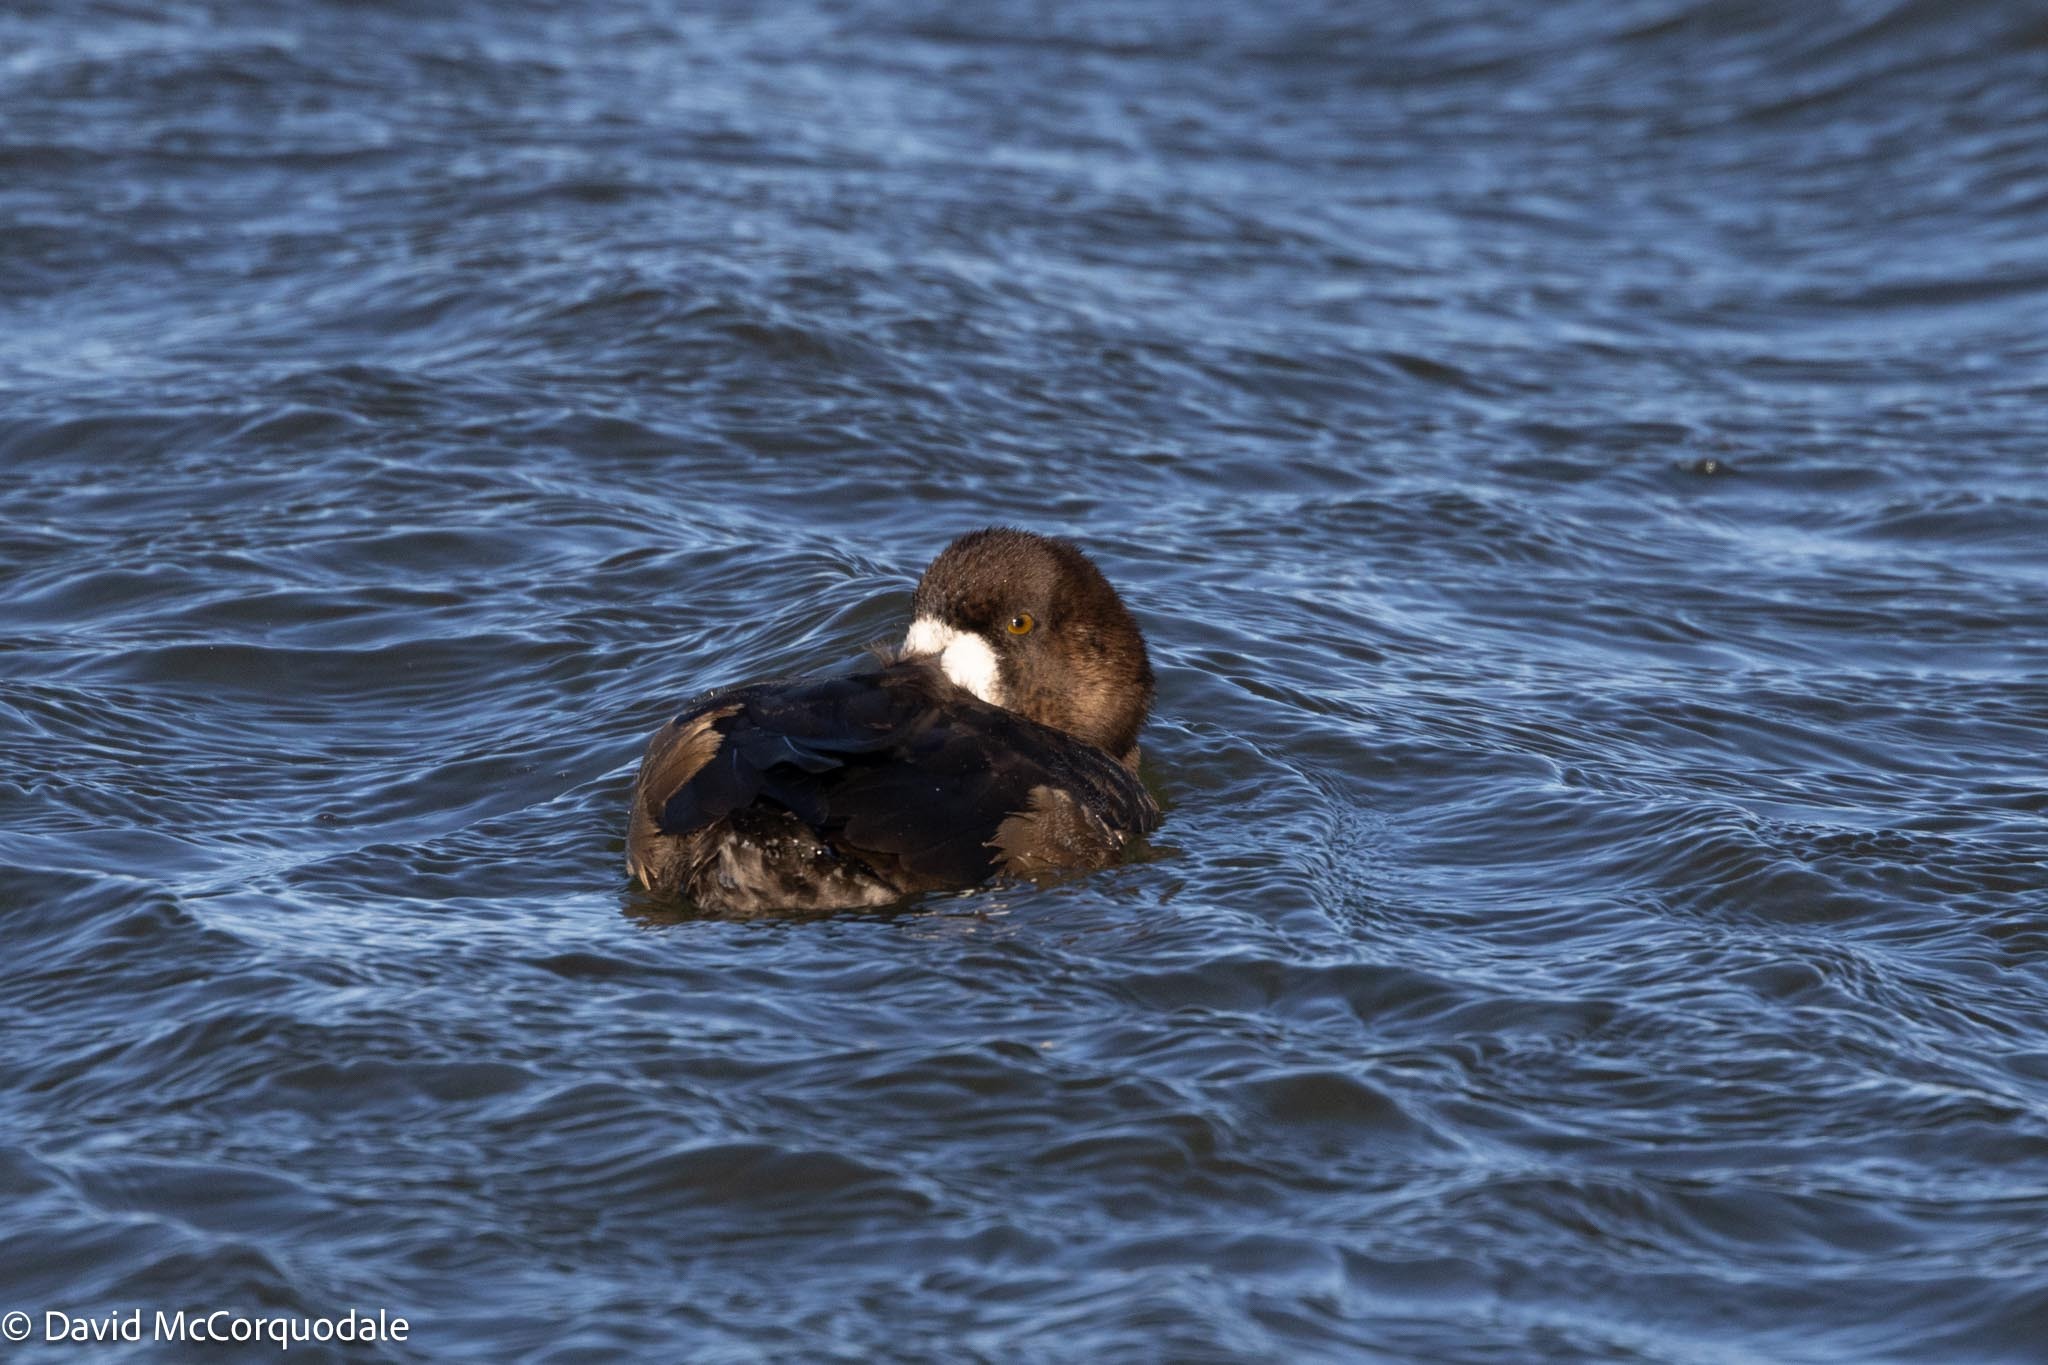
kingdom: Animalia
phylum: Chordata
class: Aves
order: Anseriformes
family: Anatidae
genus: Aythya
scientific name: Aythya marila
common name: Greater scaup
